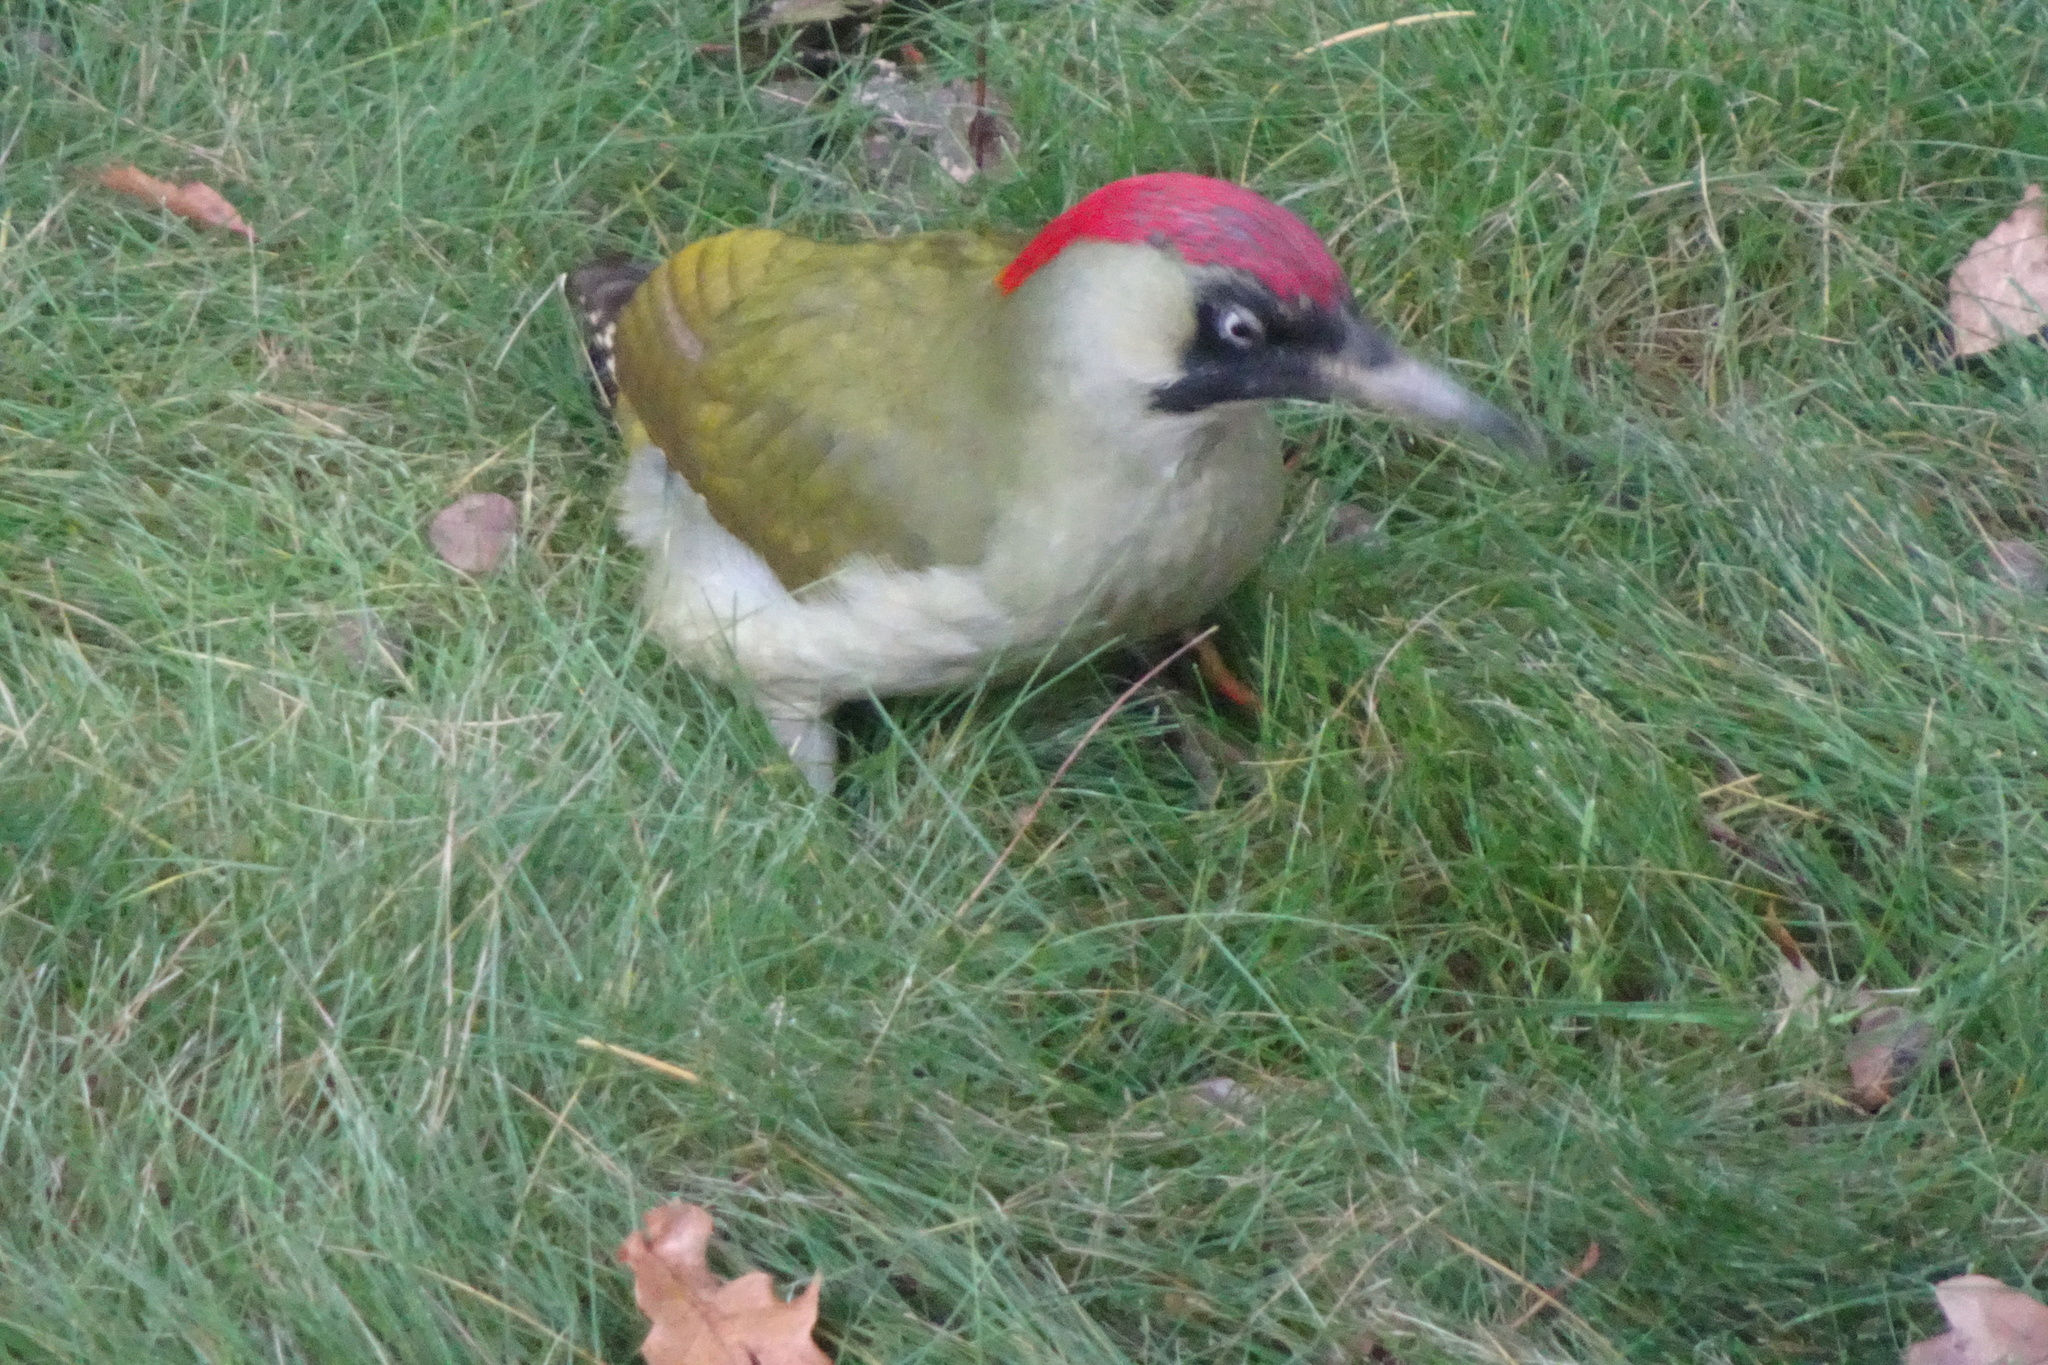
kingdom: Animalia
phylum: Chordata
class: Aves
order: Piciformes
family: Picidae
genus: Picus
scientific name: Picus viridis
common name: European green woodpecker
